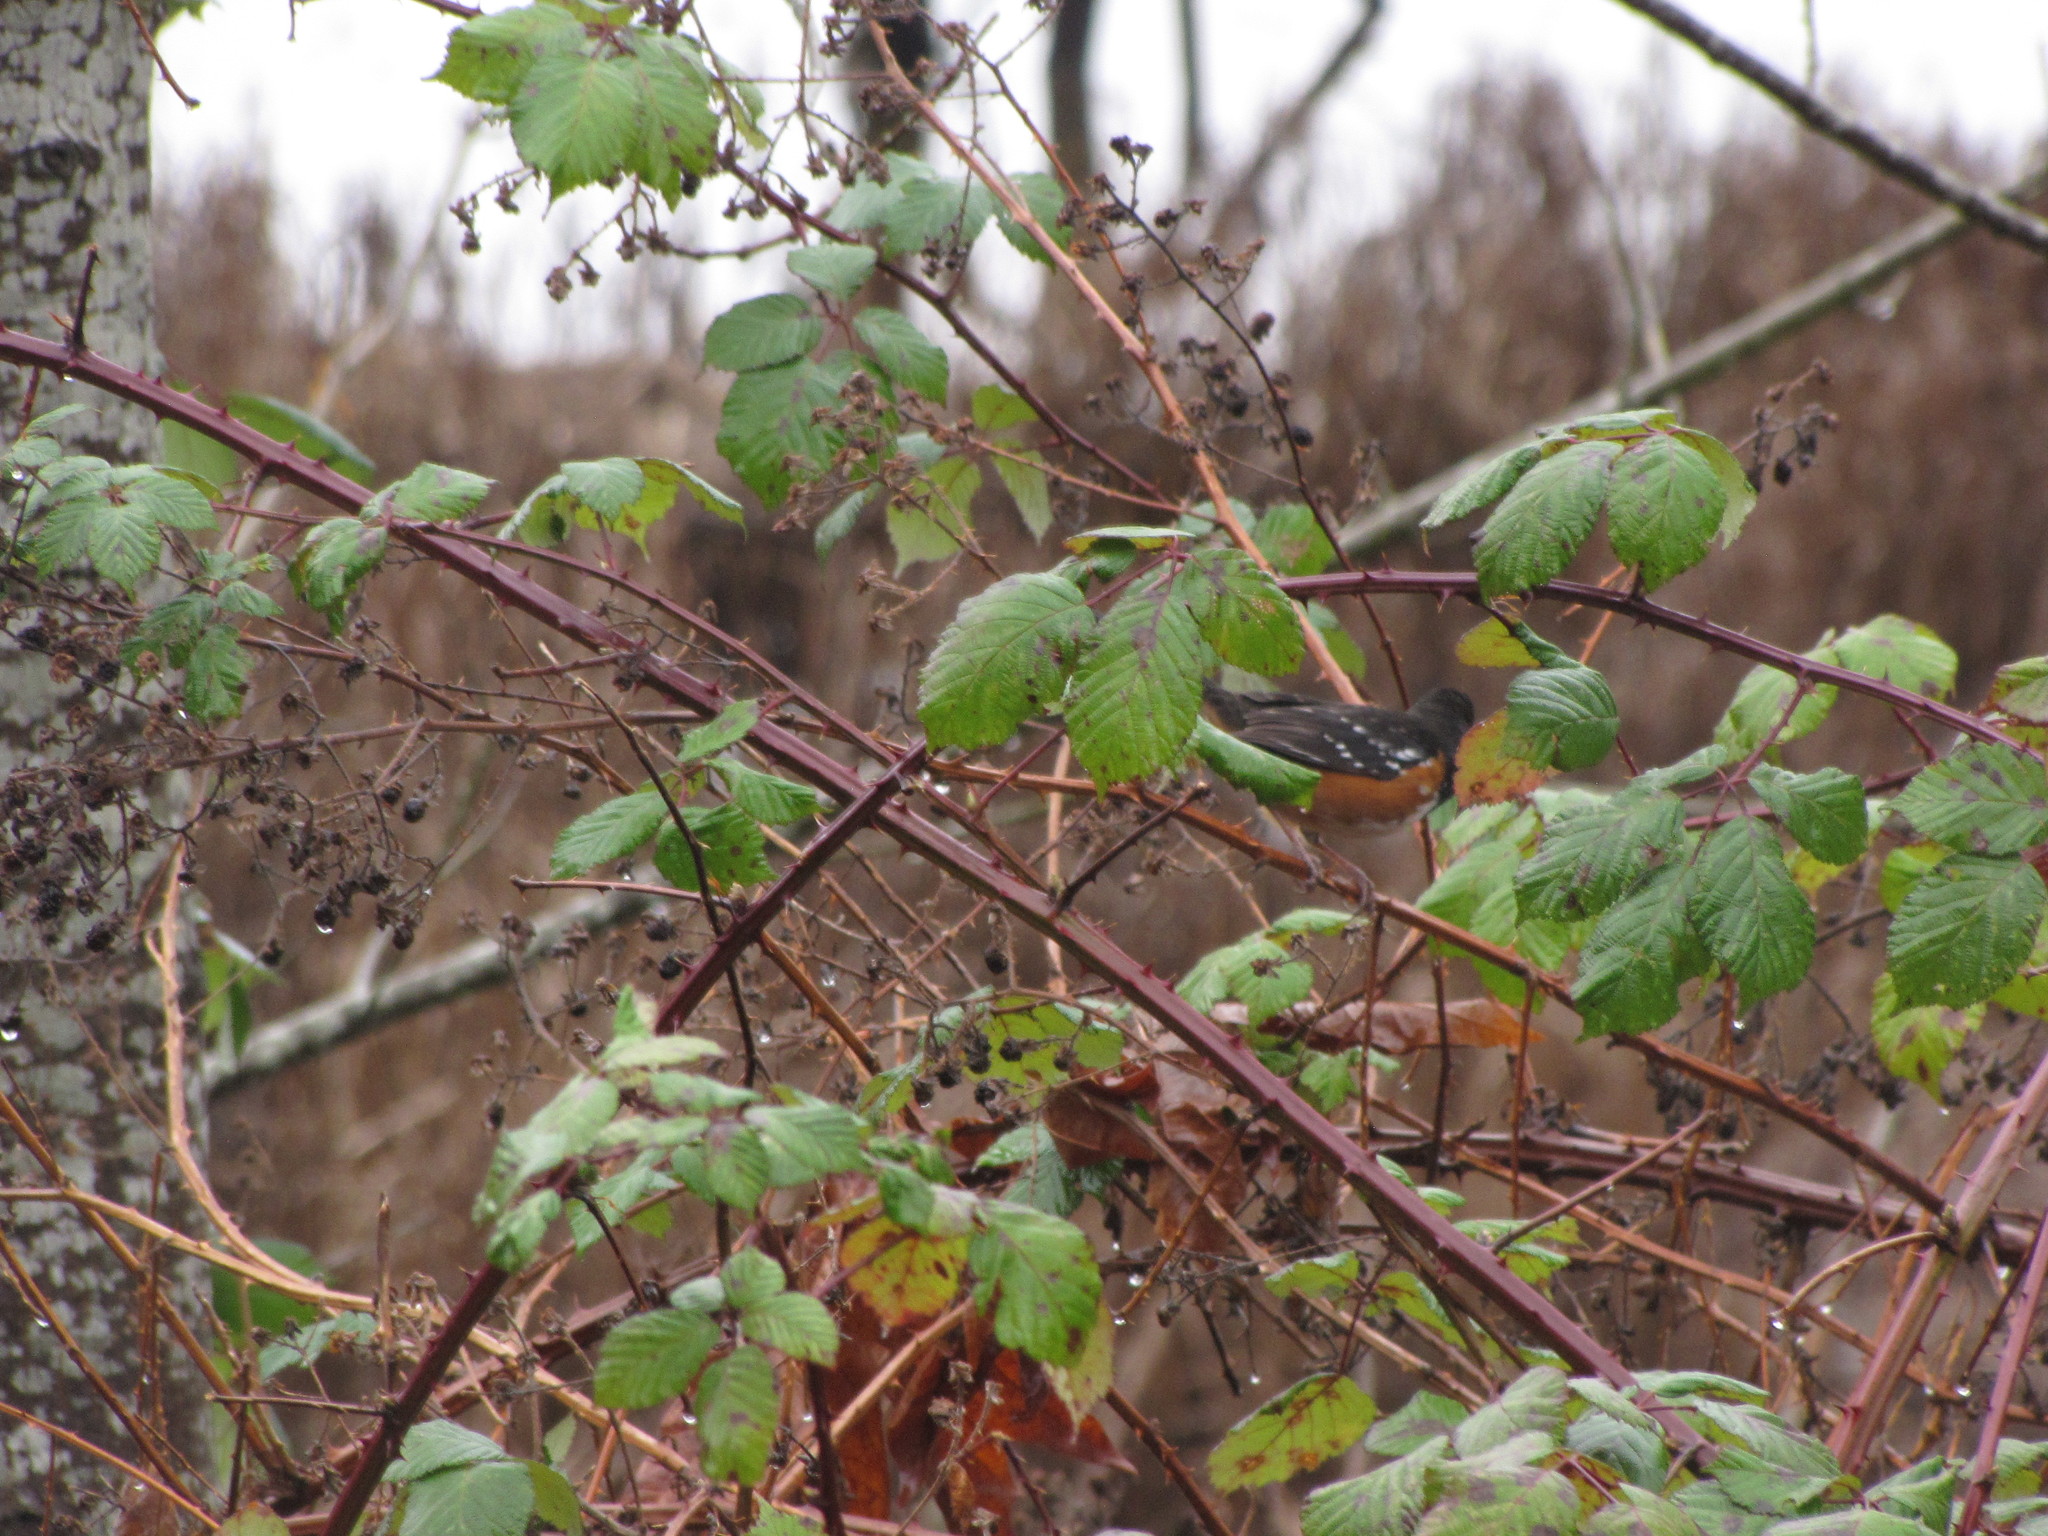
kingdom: Plantae
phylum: Tracheophyta
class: Magnoliopsida
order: Rosales
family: Rosaceae
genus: Rubus
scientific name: Rubus armeniacus
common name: Himalayan blackberry
